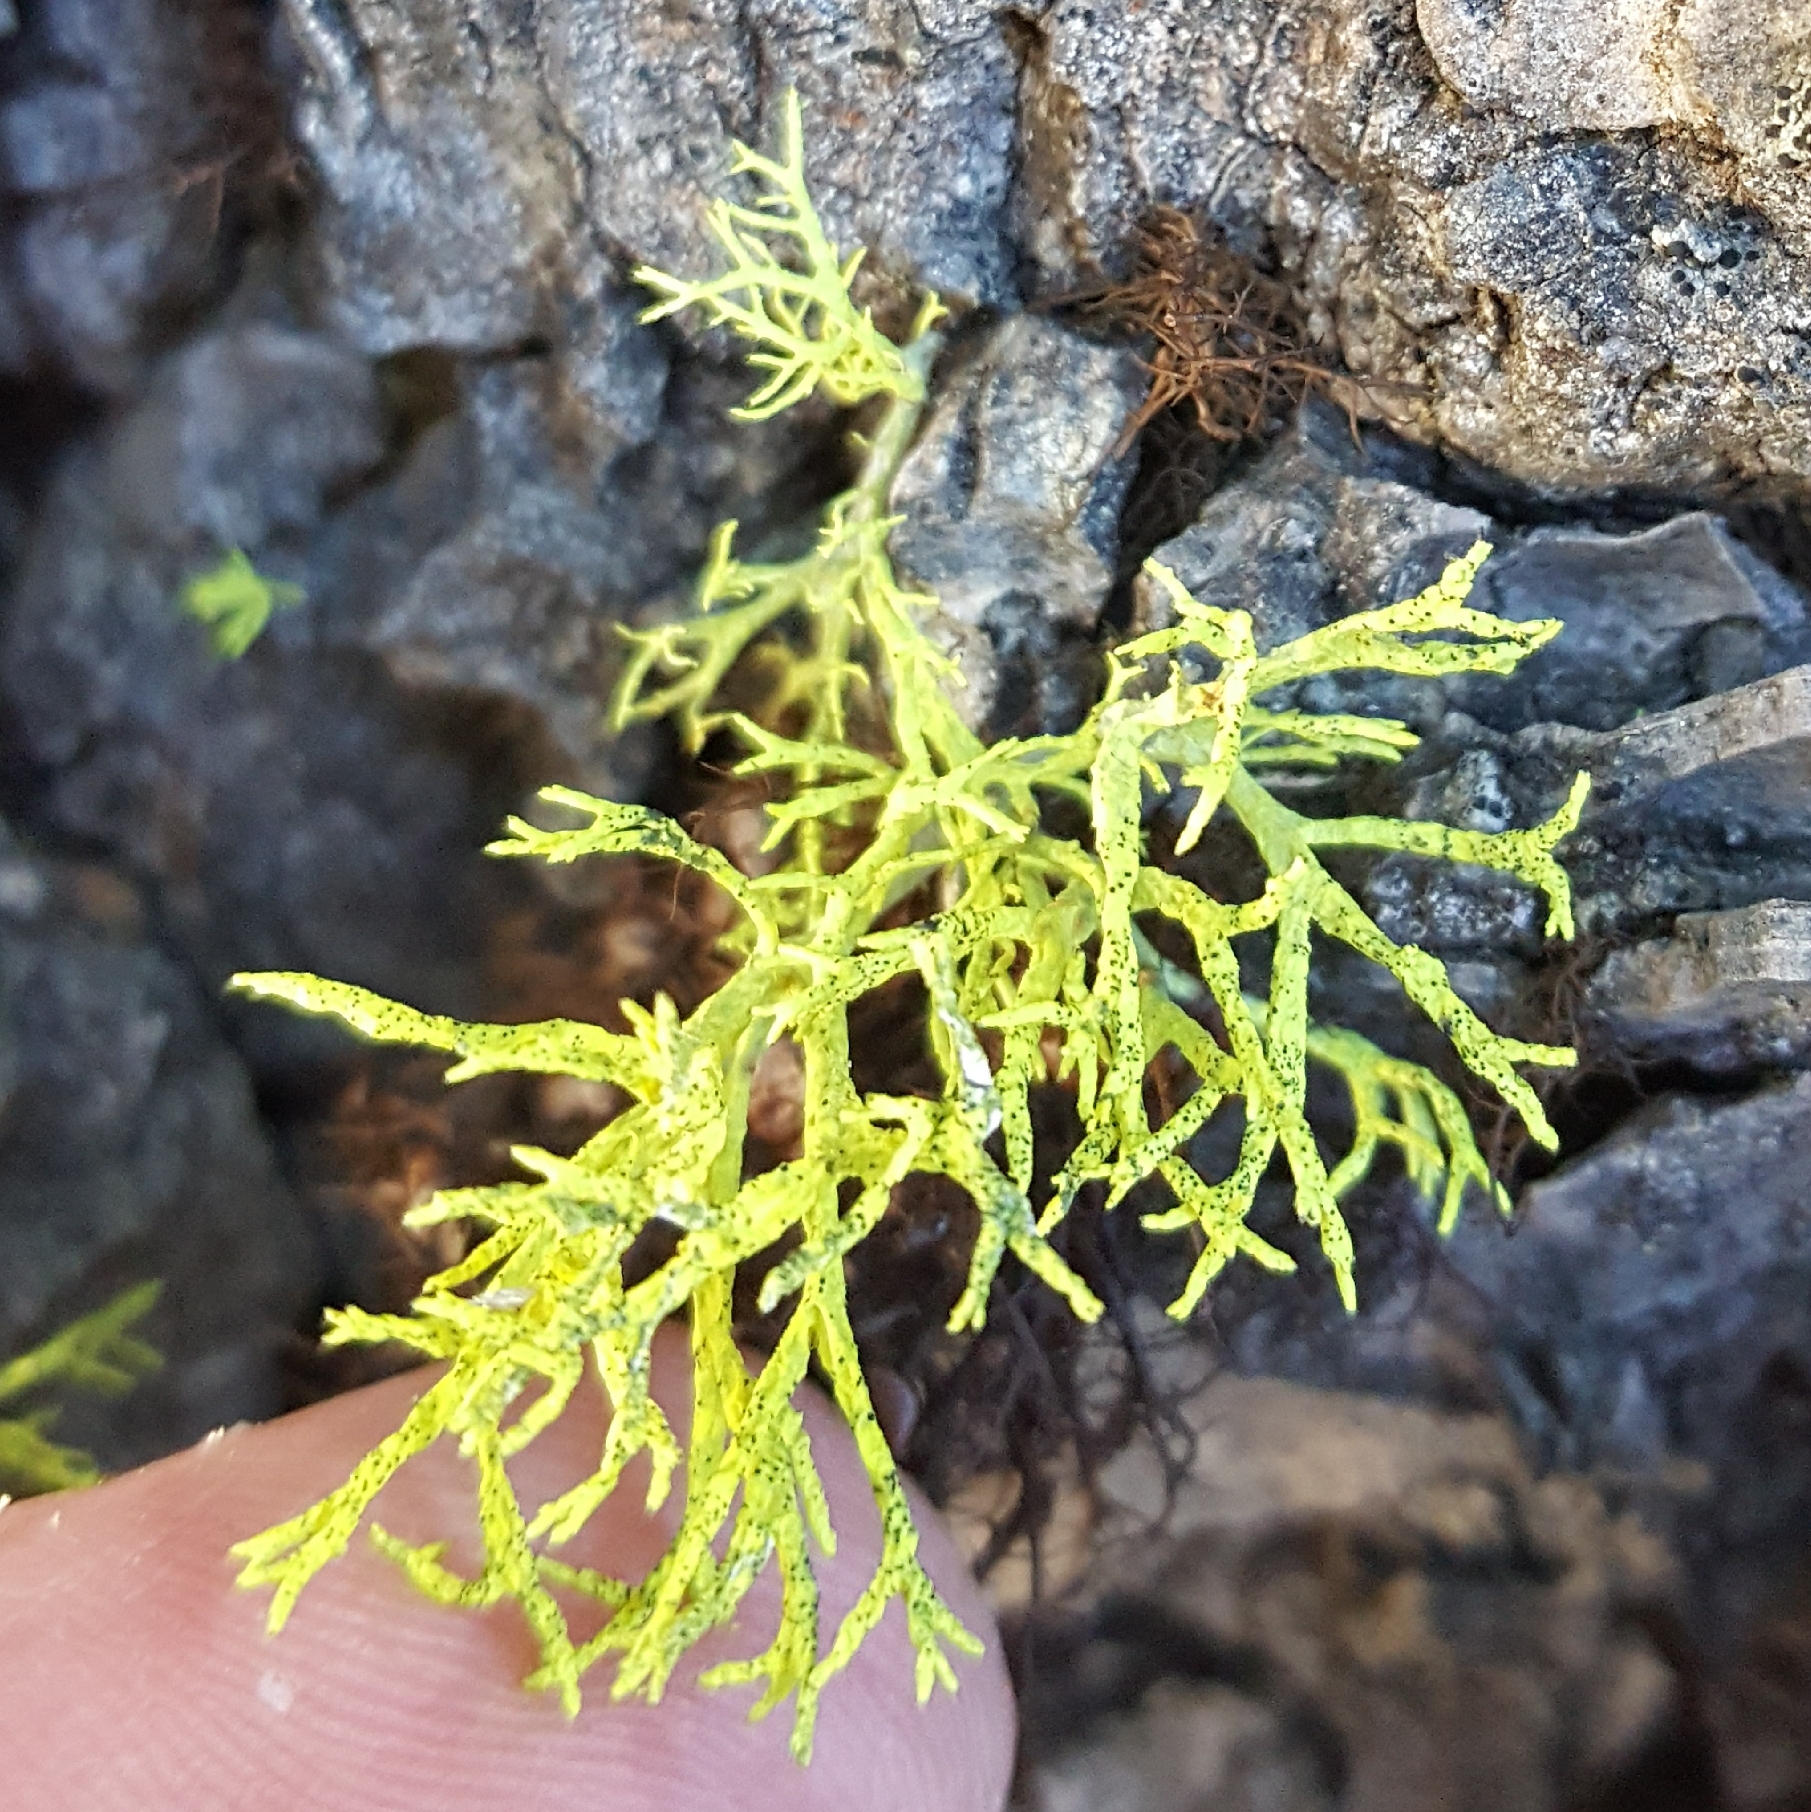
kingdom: Fungi
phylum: Ascomycota
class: Lecanoromycetes
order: Lecanorales
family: Parmeliaceae
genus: Letharia
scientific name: Letharia
